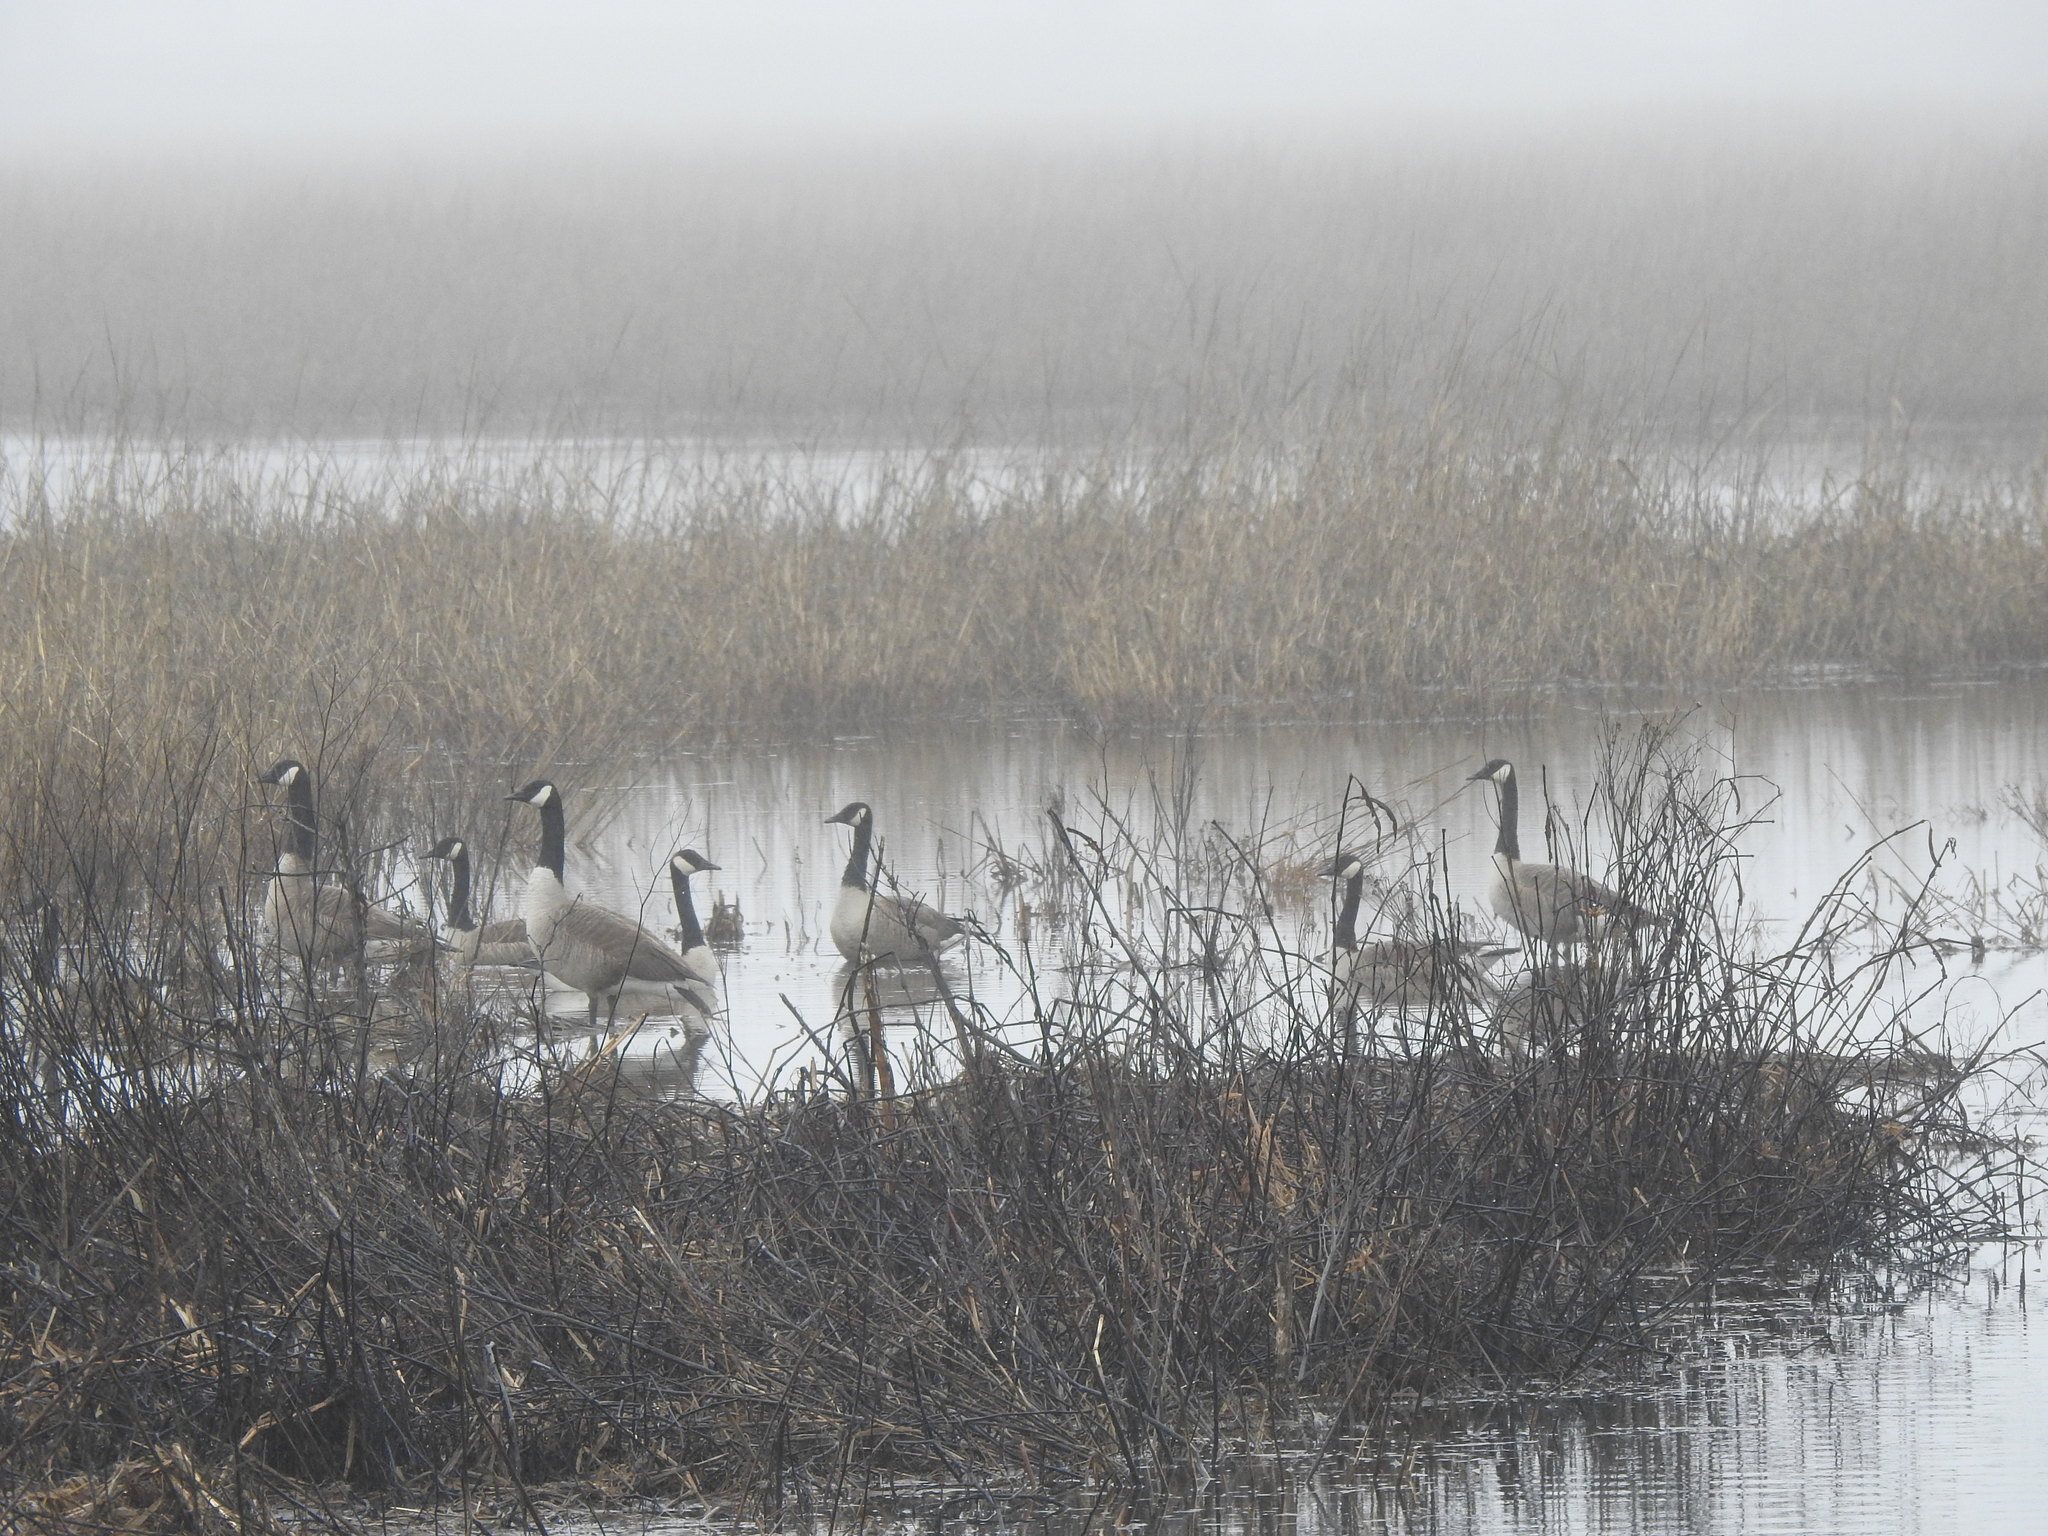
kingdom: Animalia
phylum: Chordata
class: Aves
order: Anseriformes
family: Anatidae
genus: Branta
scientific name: Branta canadensis
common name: Canada goose
